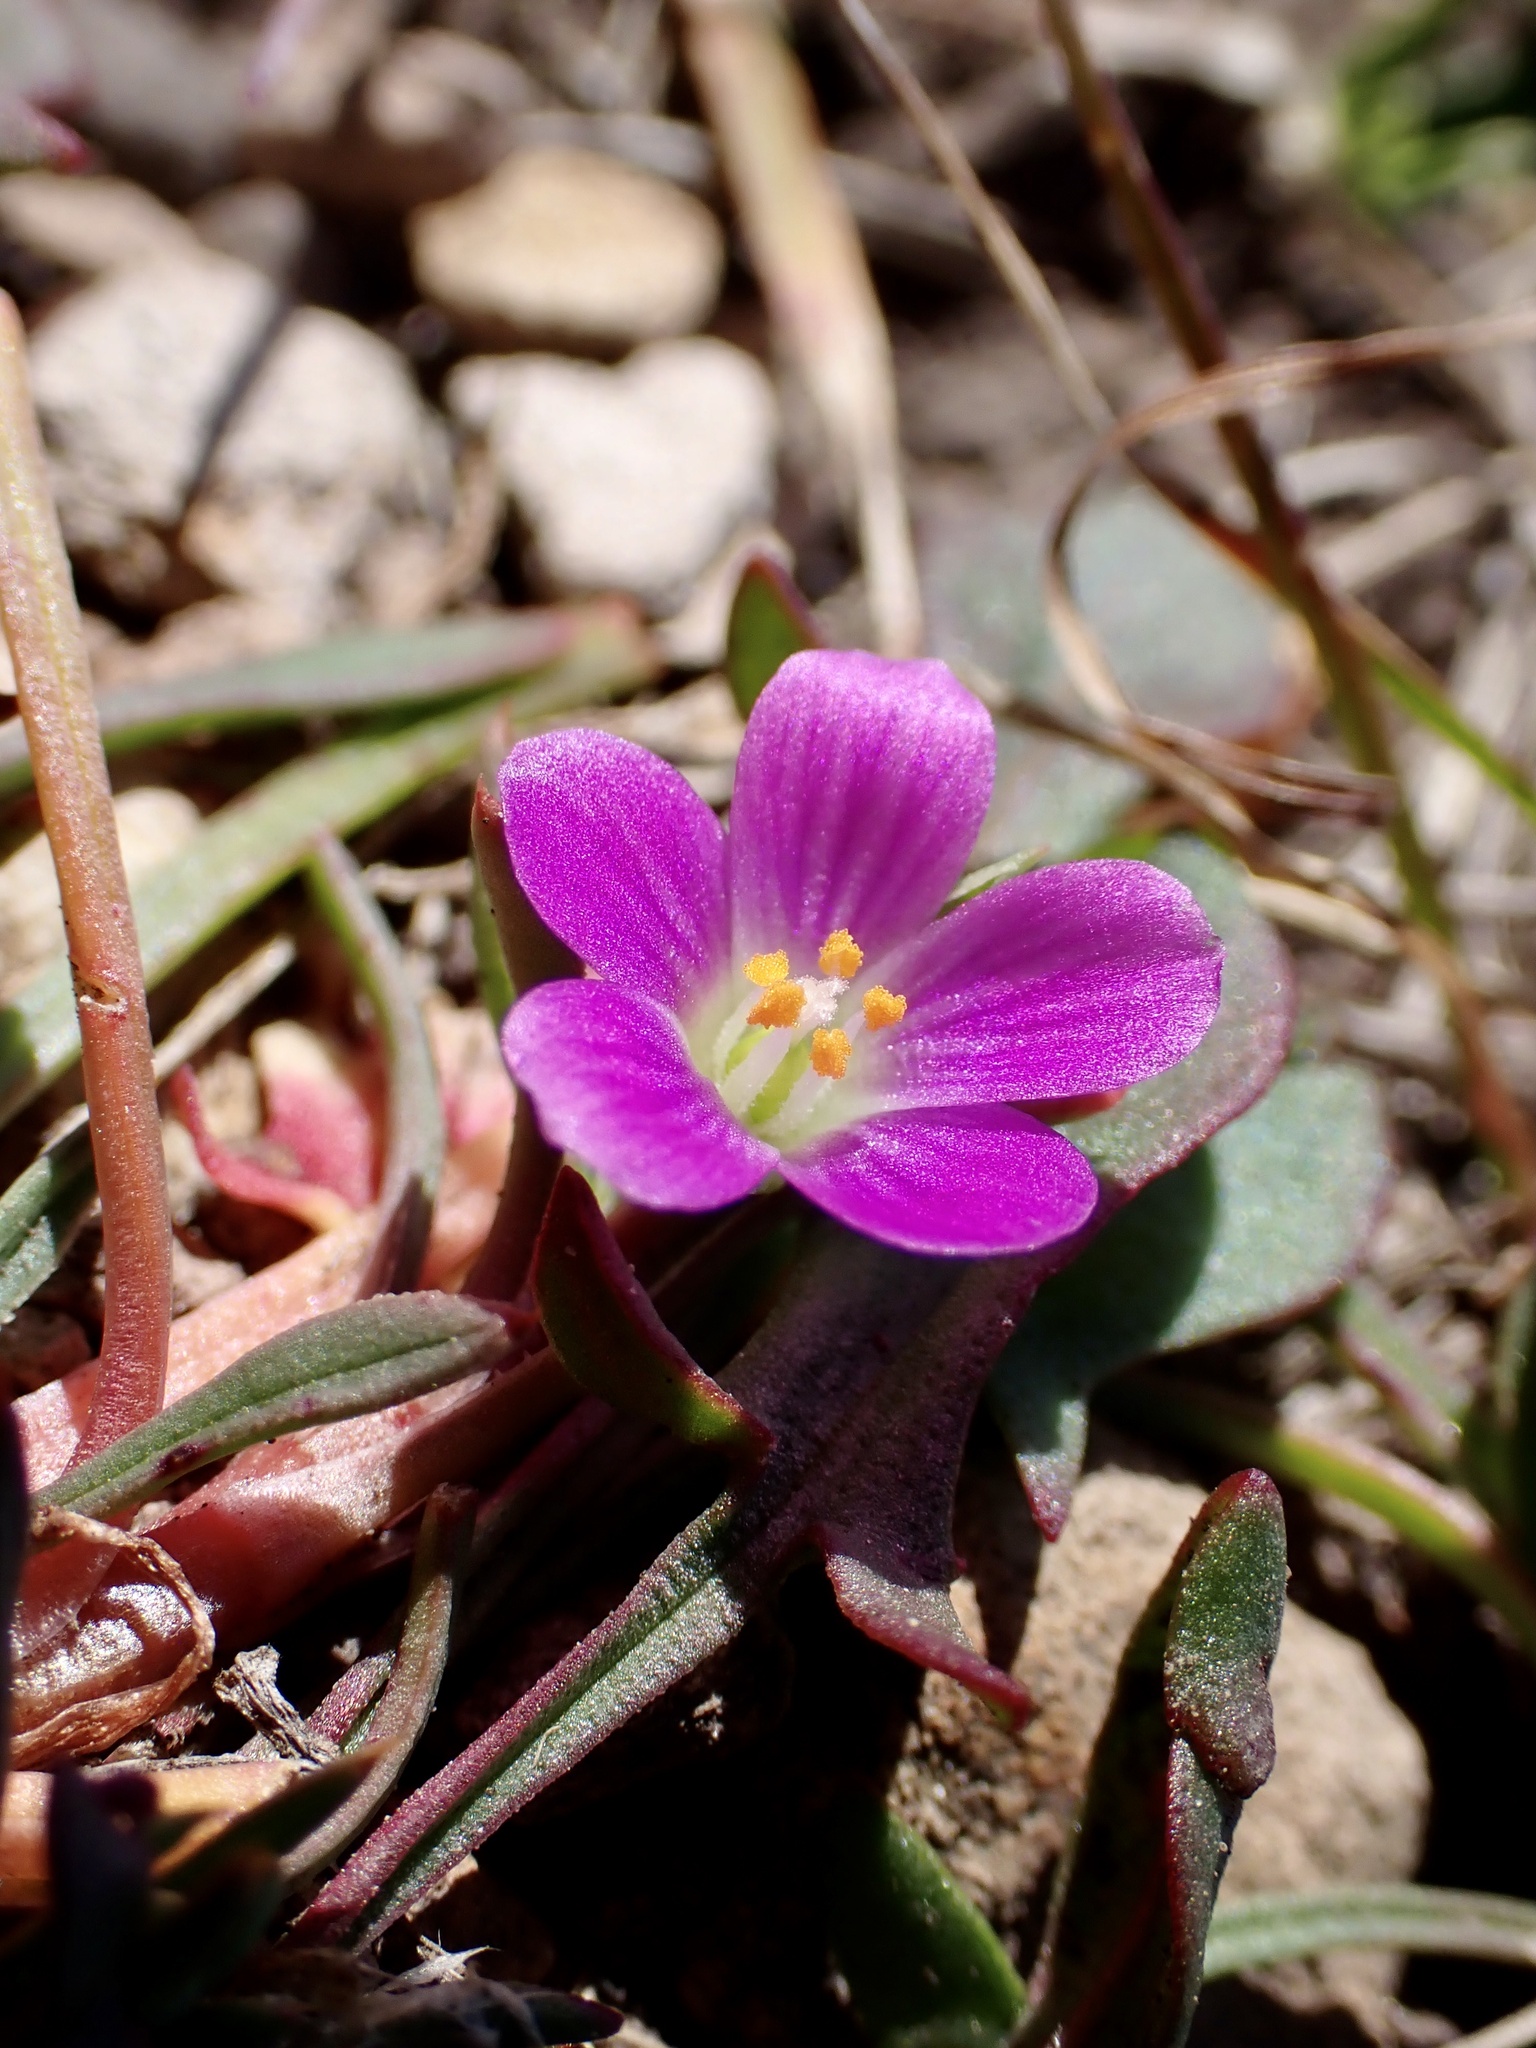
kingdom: Plantae
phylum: Tracheophyta
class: Magnoliopsida
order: Caryophyllales
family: Montiaceae
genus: Calandrinia
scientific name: Calandrinia menziesii
